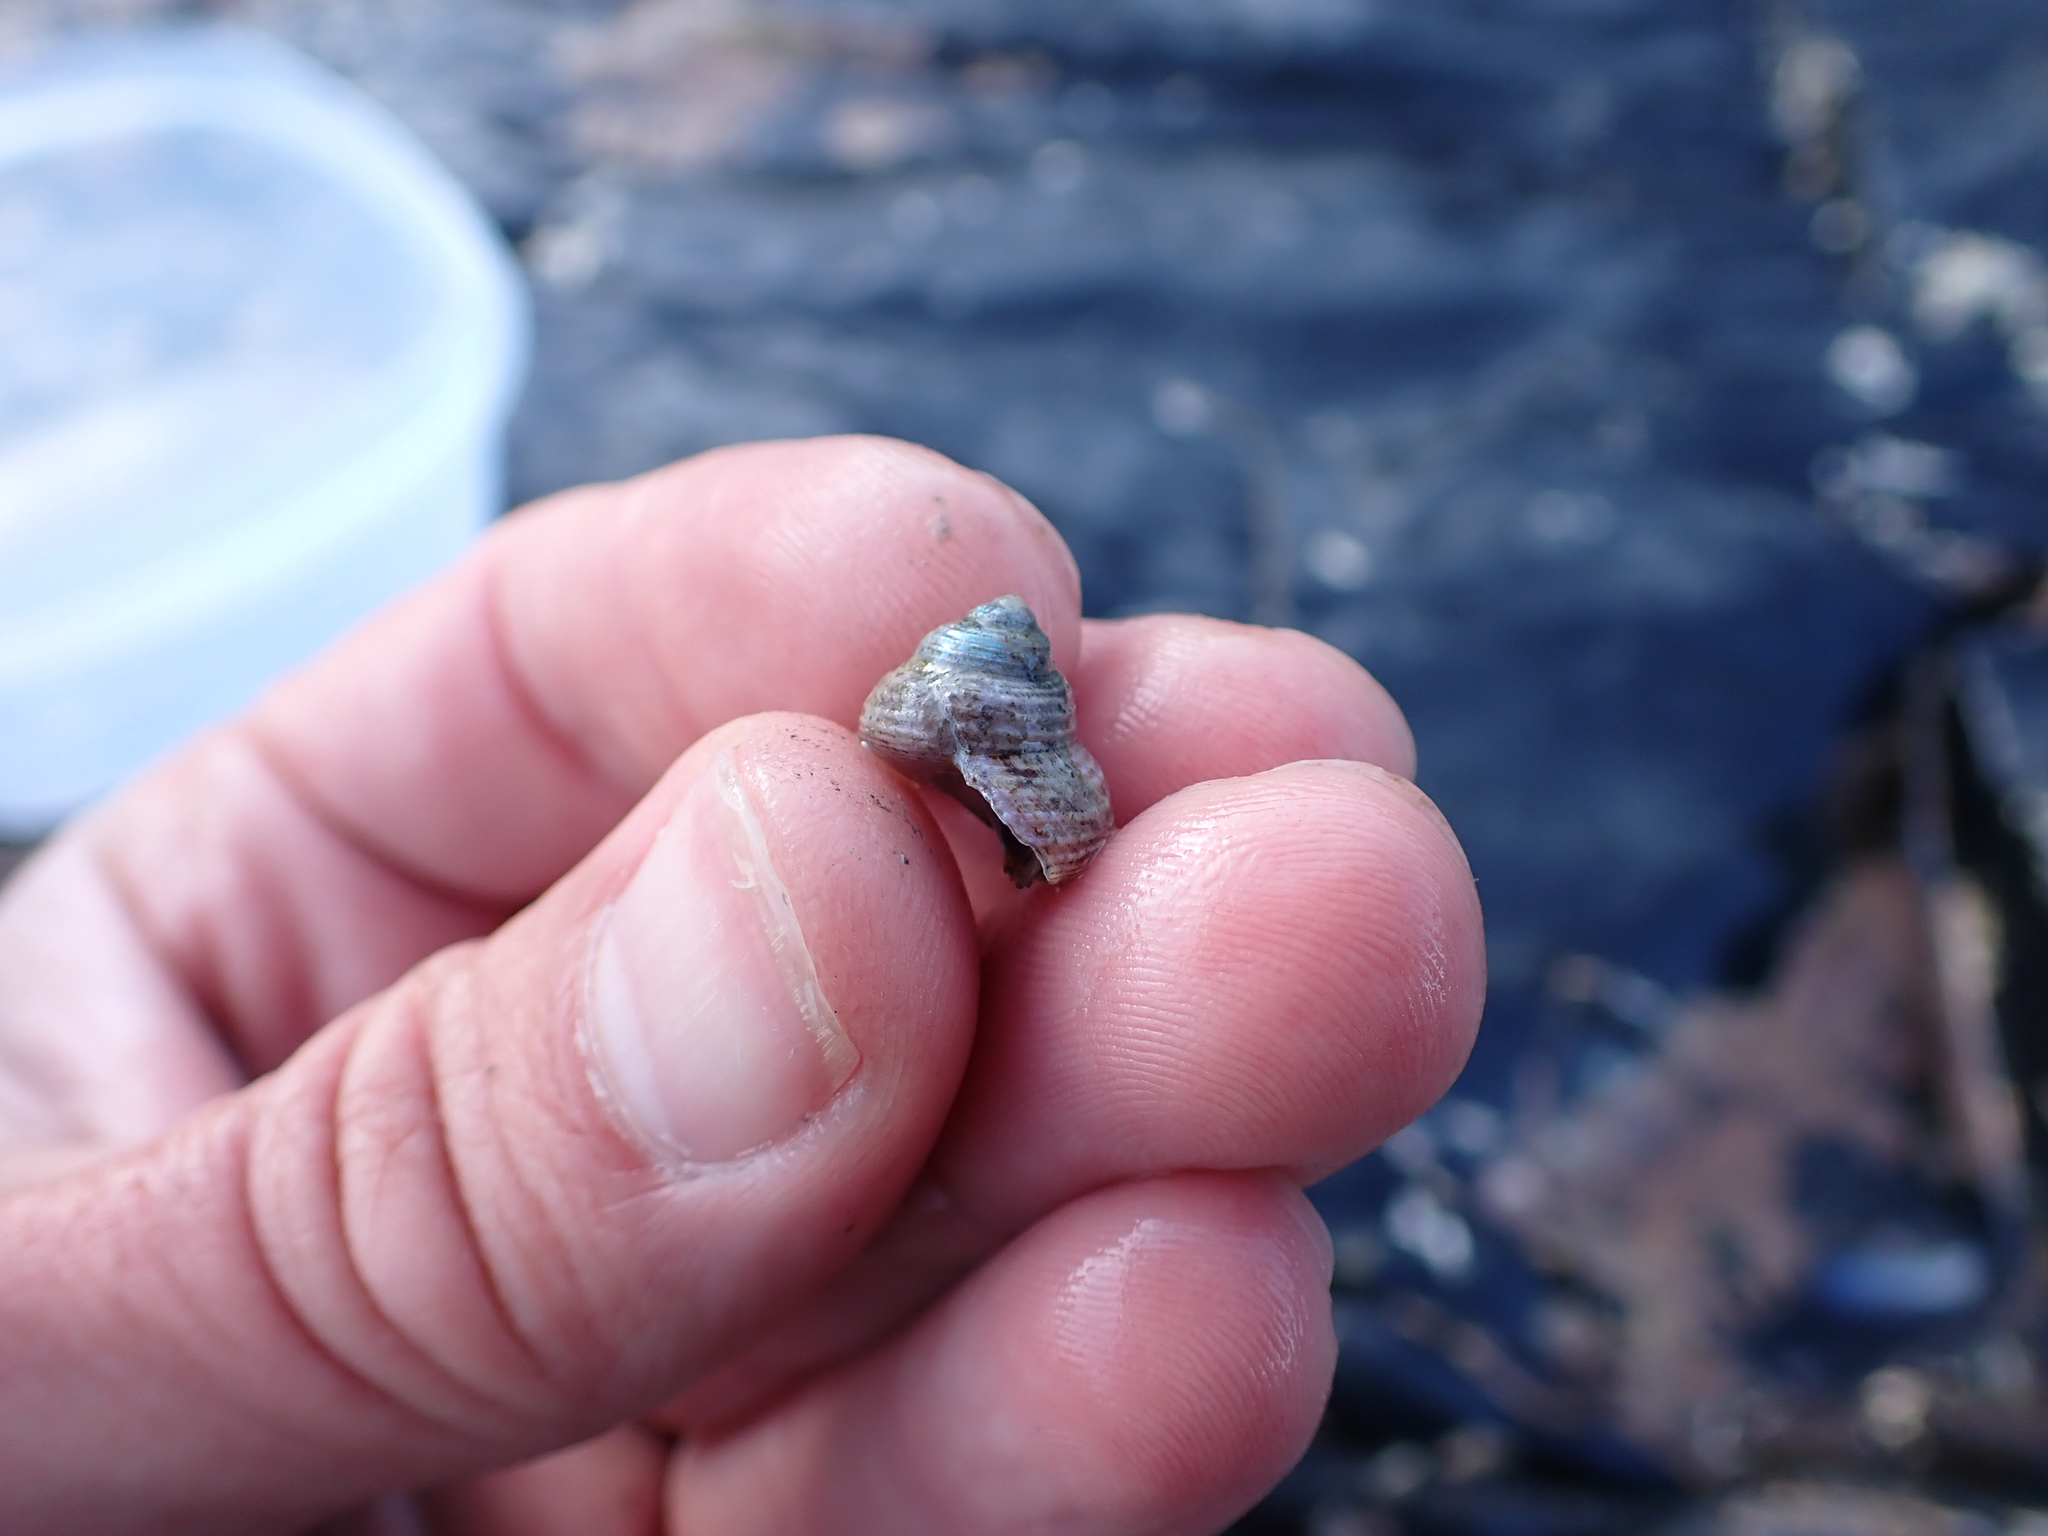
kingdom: Animalia
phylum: Mollusca
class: Gastropoda
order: Trochida
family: Calliostomatidae
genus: Calliostoma
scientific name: Calliostoma ligatum
